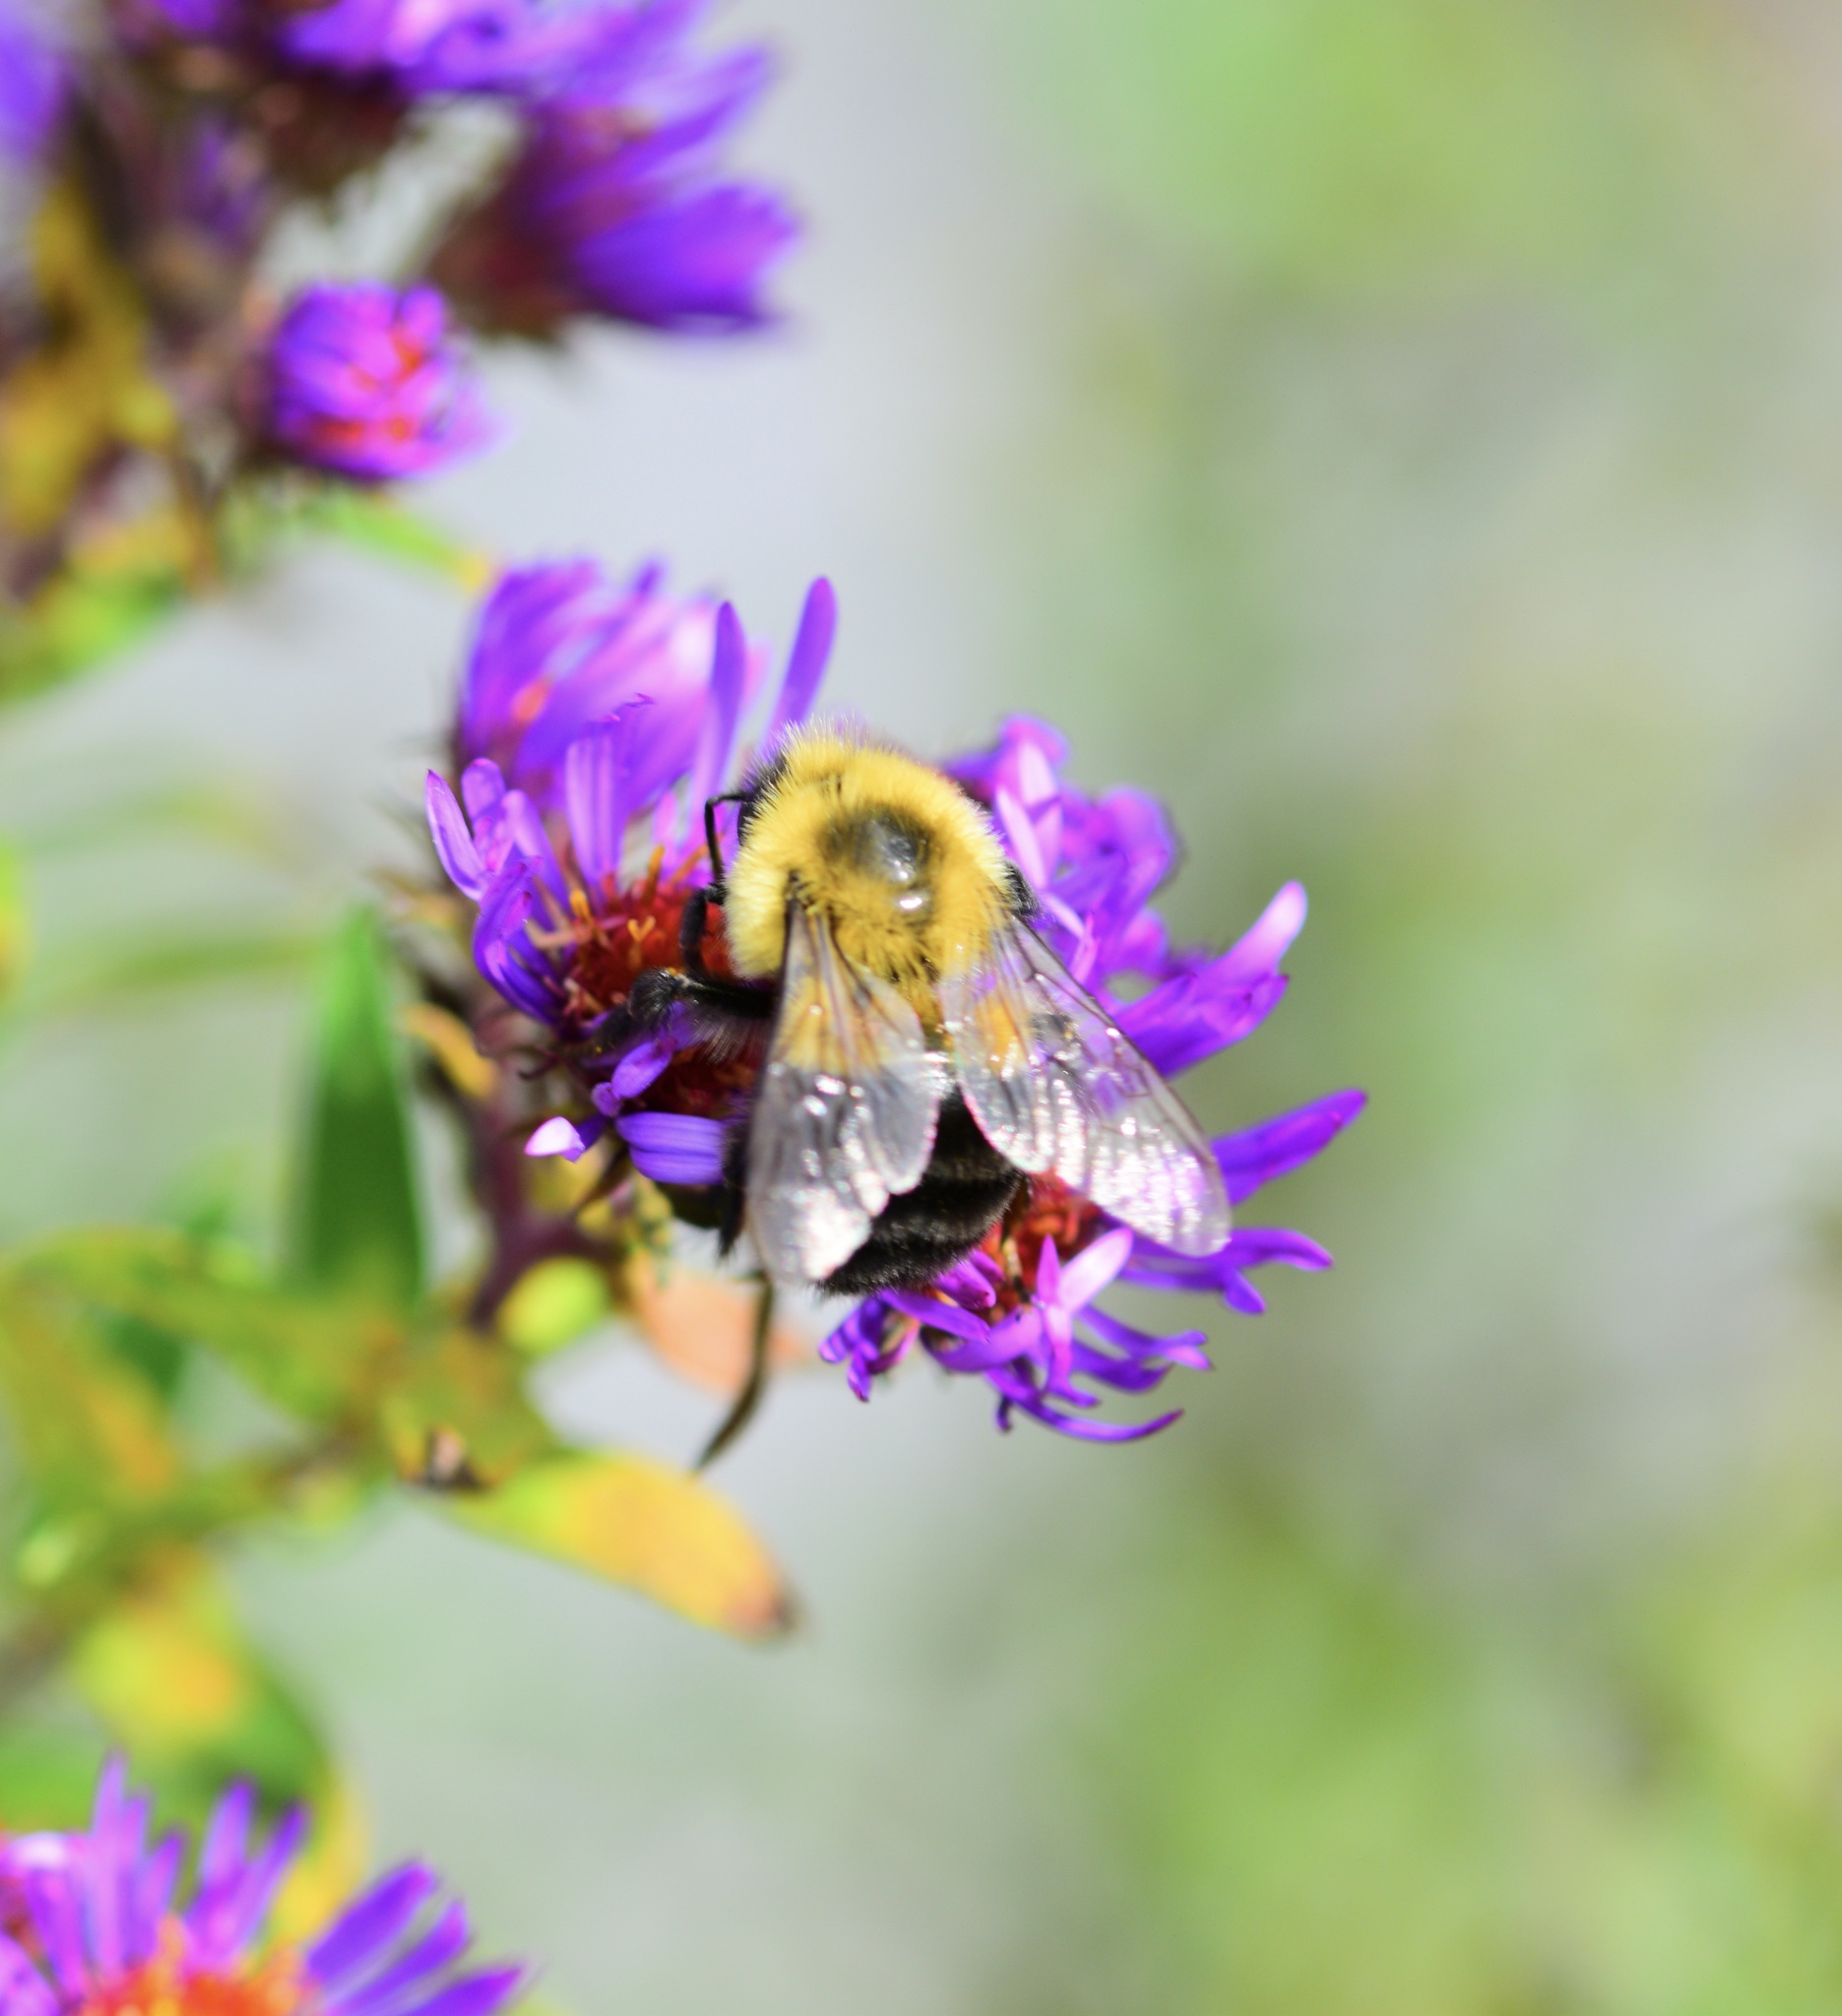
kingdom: Animalia
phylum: Arthropoda
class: Insecta
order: Hymenoptera
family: Apidae
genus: Bombus
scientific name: Bombus impatiens
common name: Common eastern bumble bee
